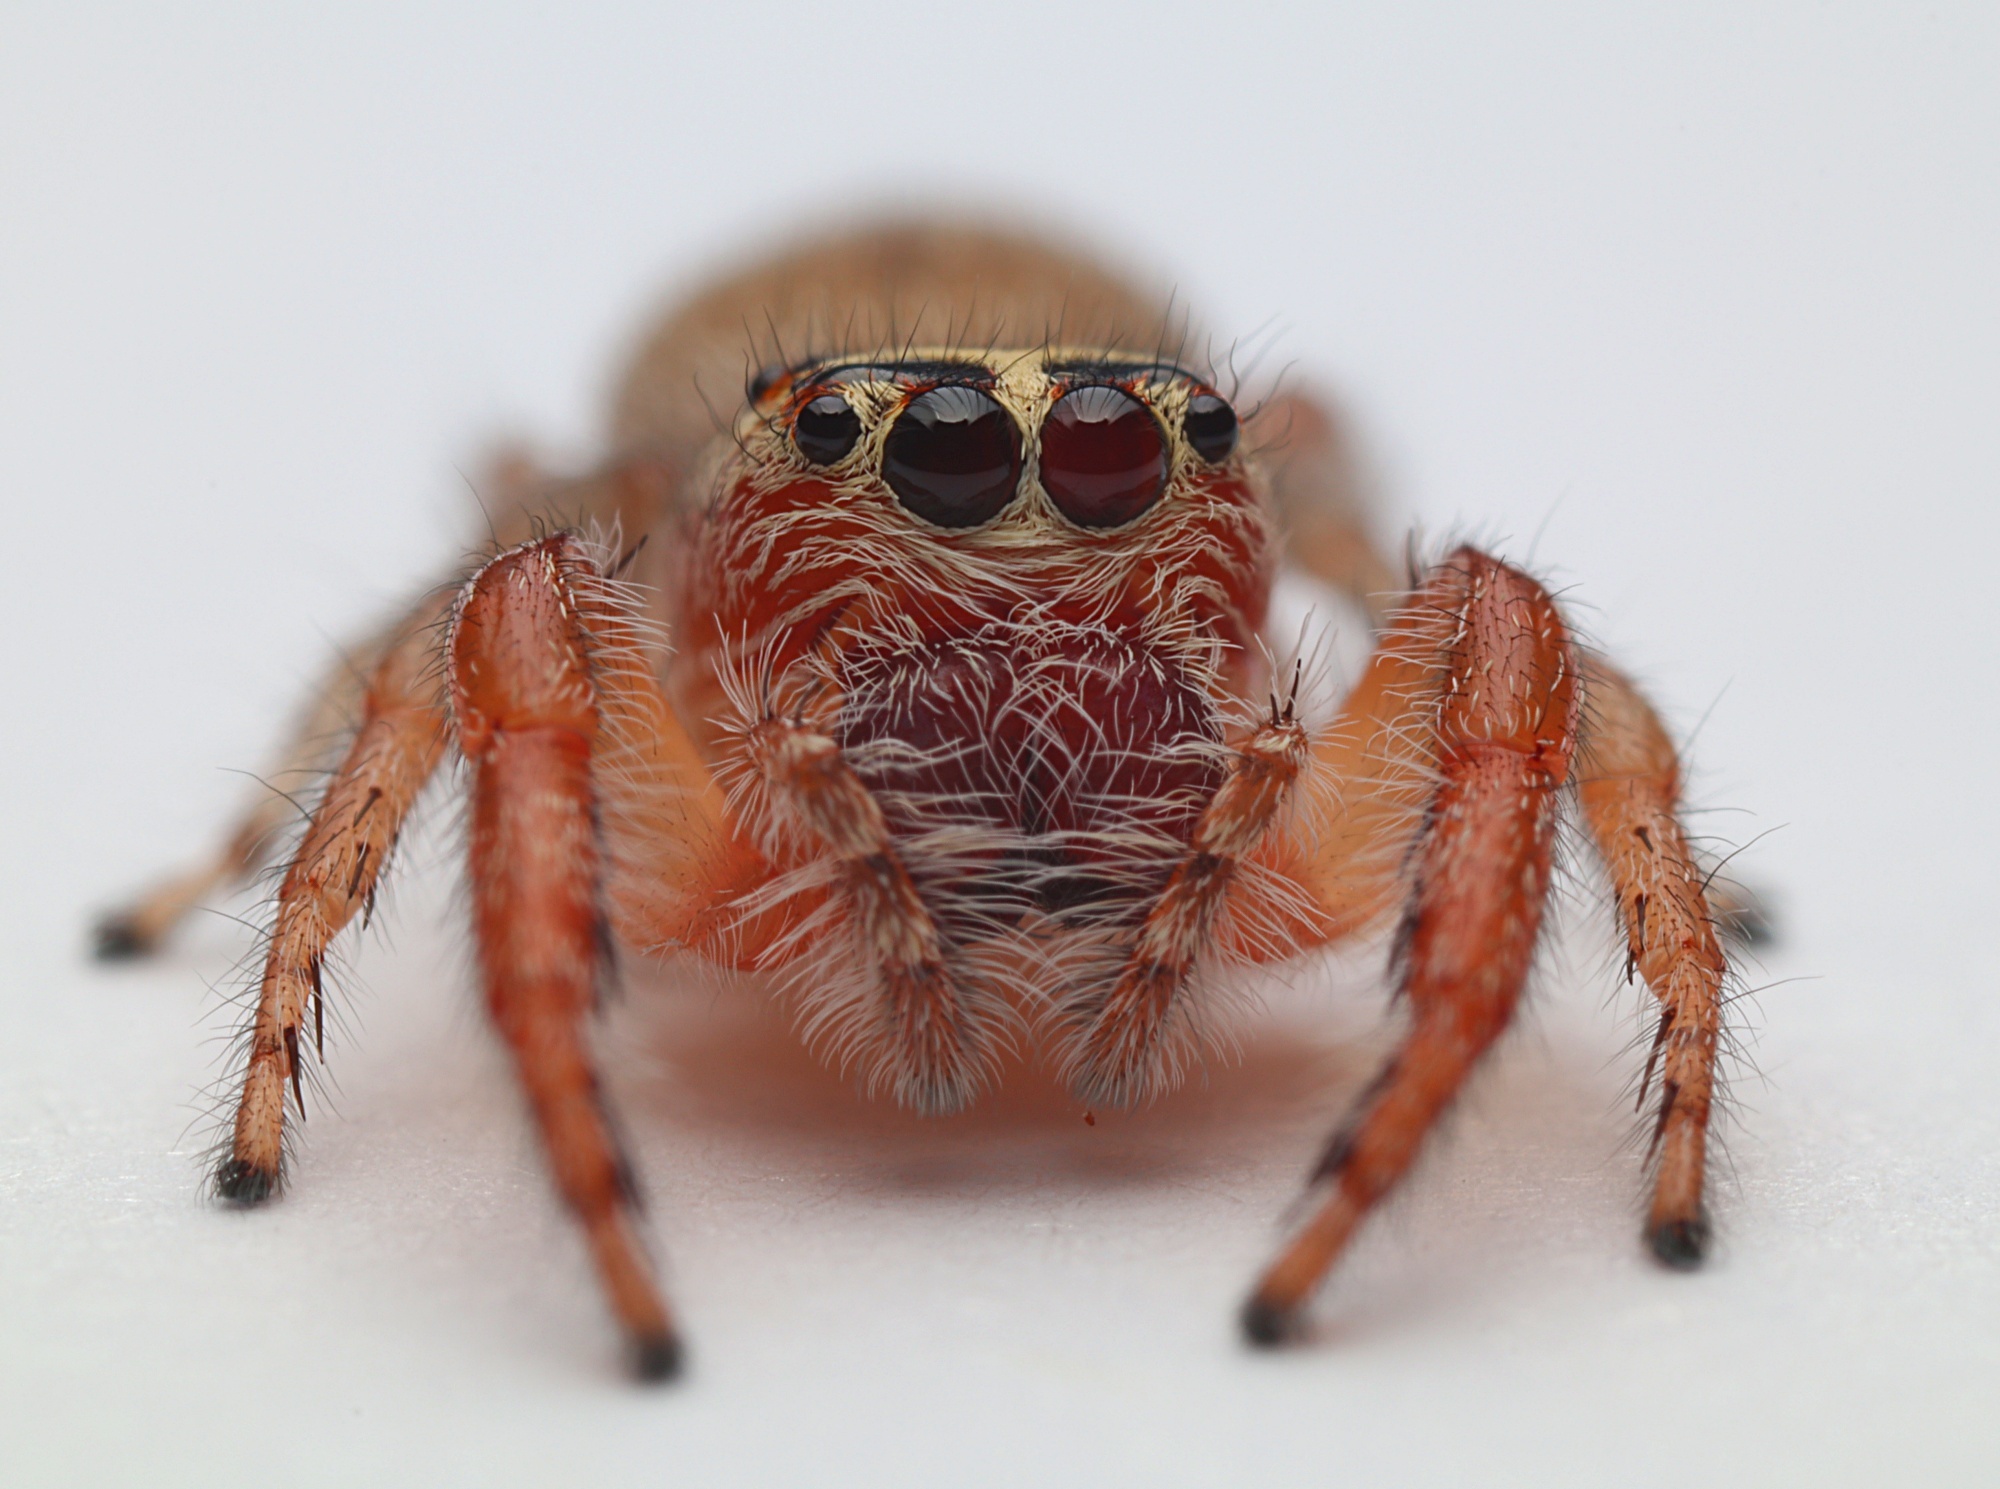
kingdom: Animalia
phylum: Arthropoda
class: Arachnida
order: Araneae
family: Salticidae
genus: Opisthoncus
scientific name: Opisthoncus polyphemus
